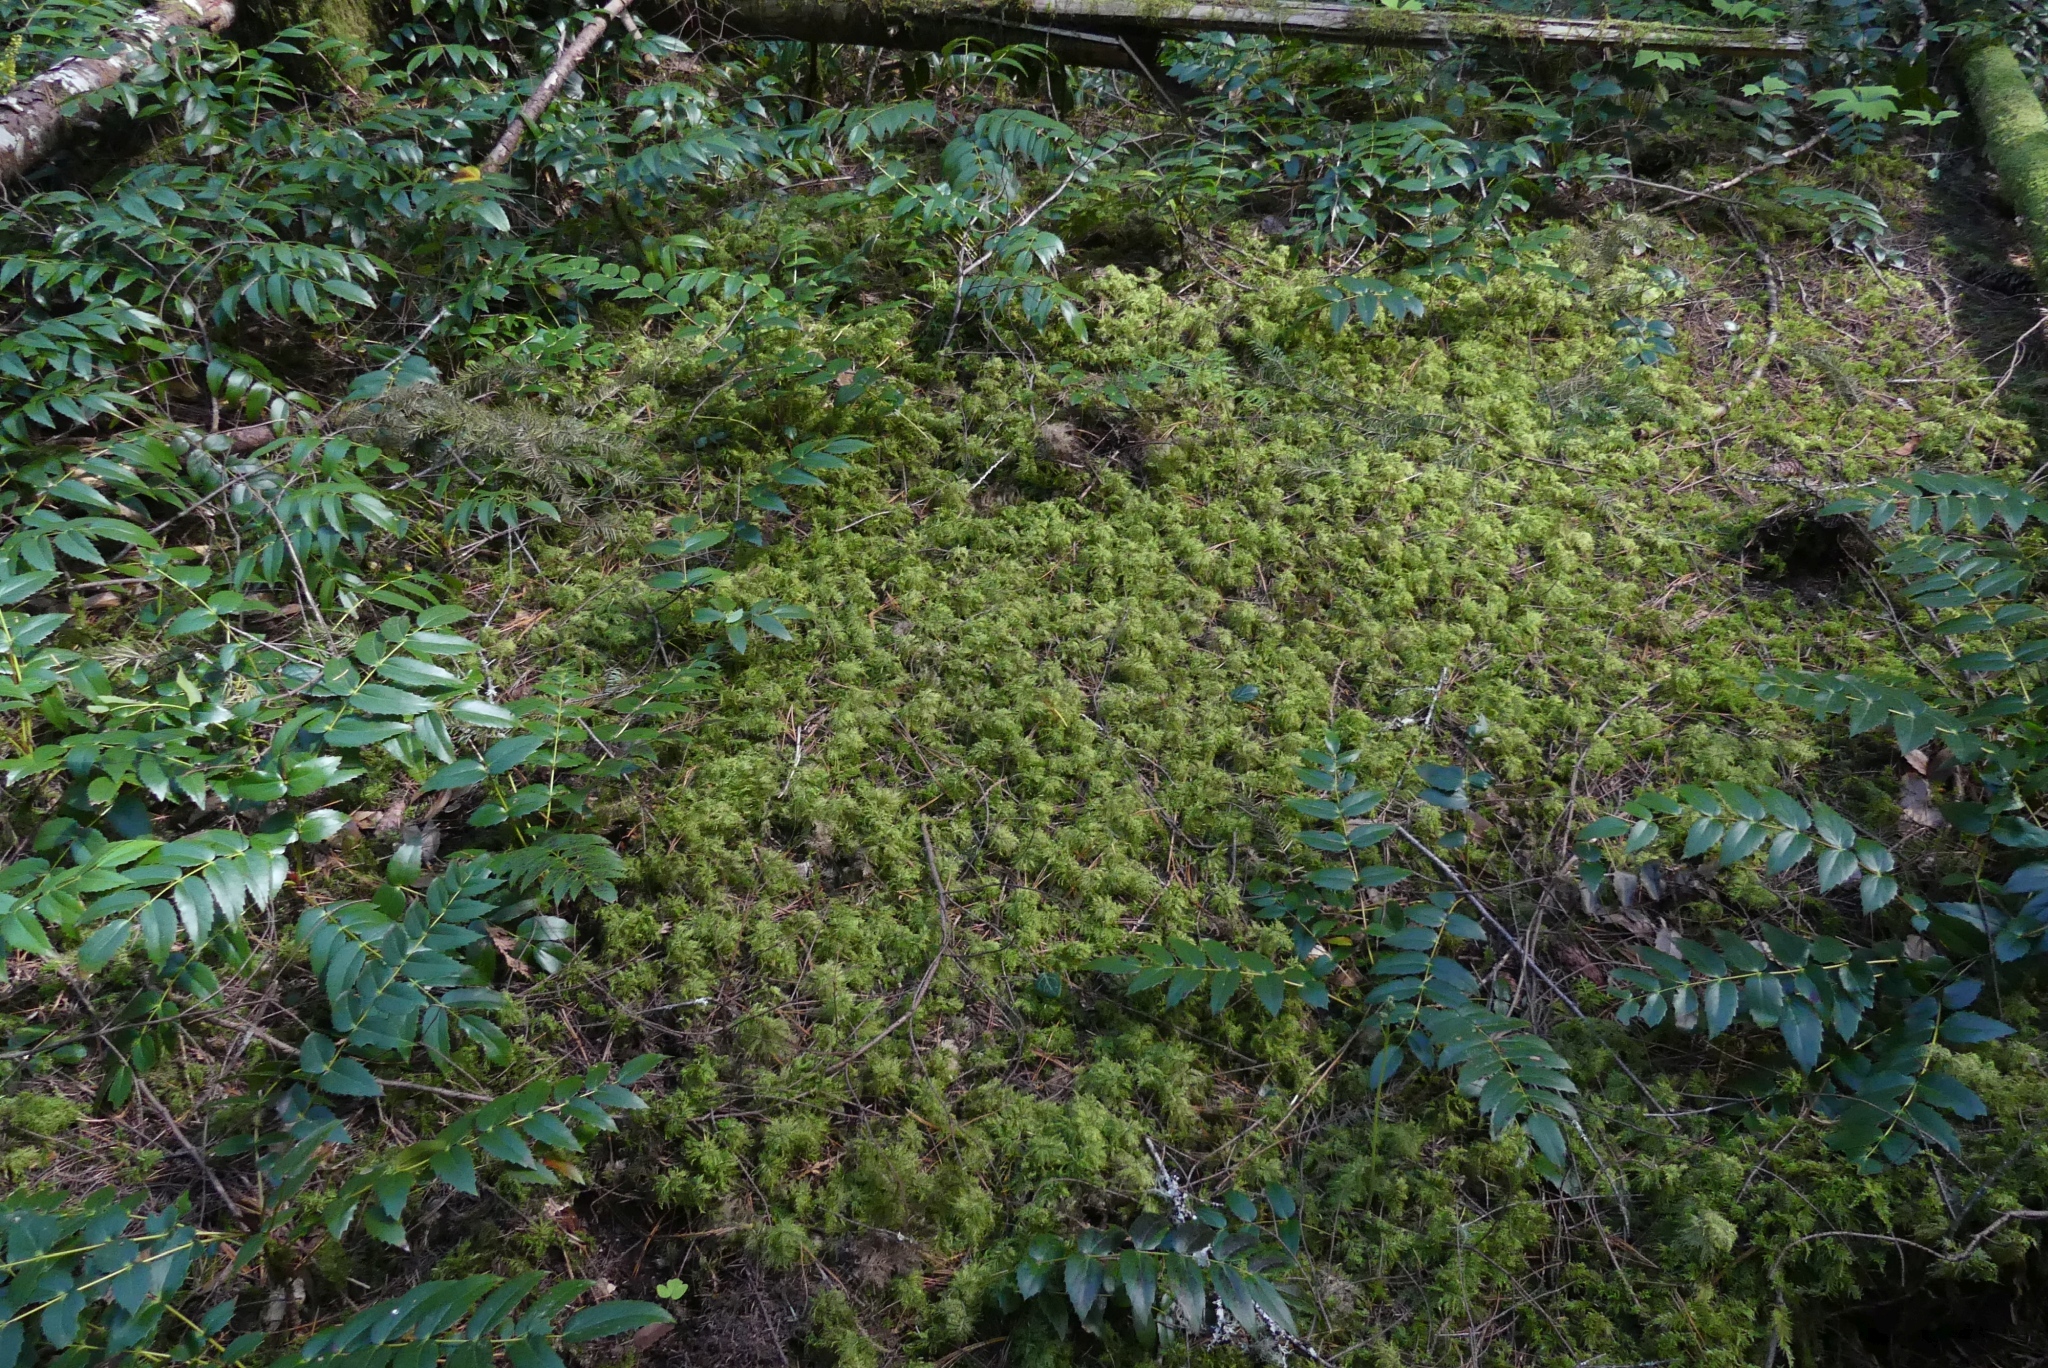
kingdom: Plantae
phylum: Bryophyta
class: Bryopsida
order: Hypnales
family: Hylocomiaceae
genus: Hylocomium
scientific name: Hylocomium splendens
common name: Stairstep moss
